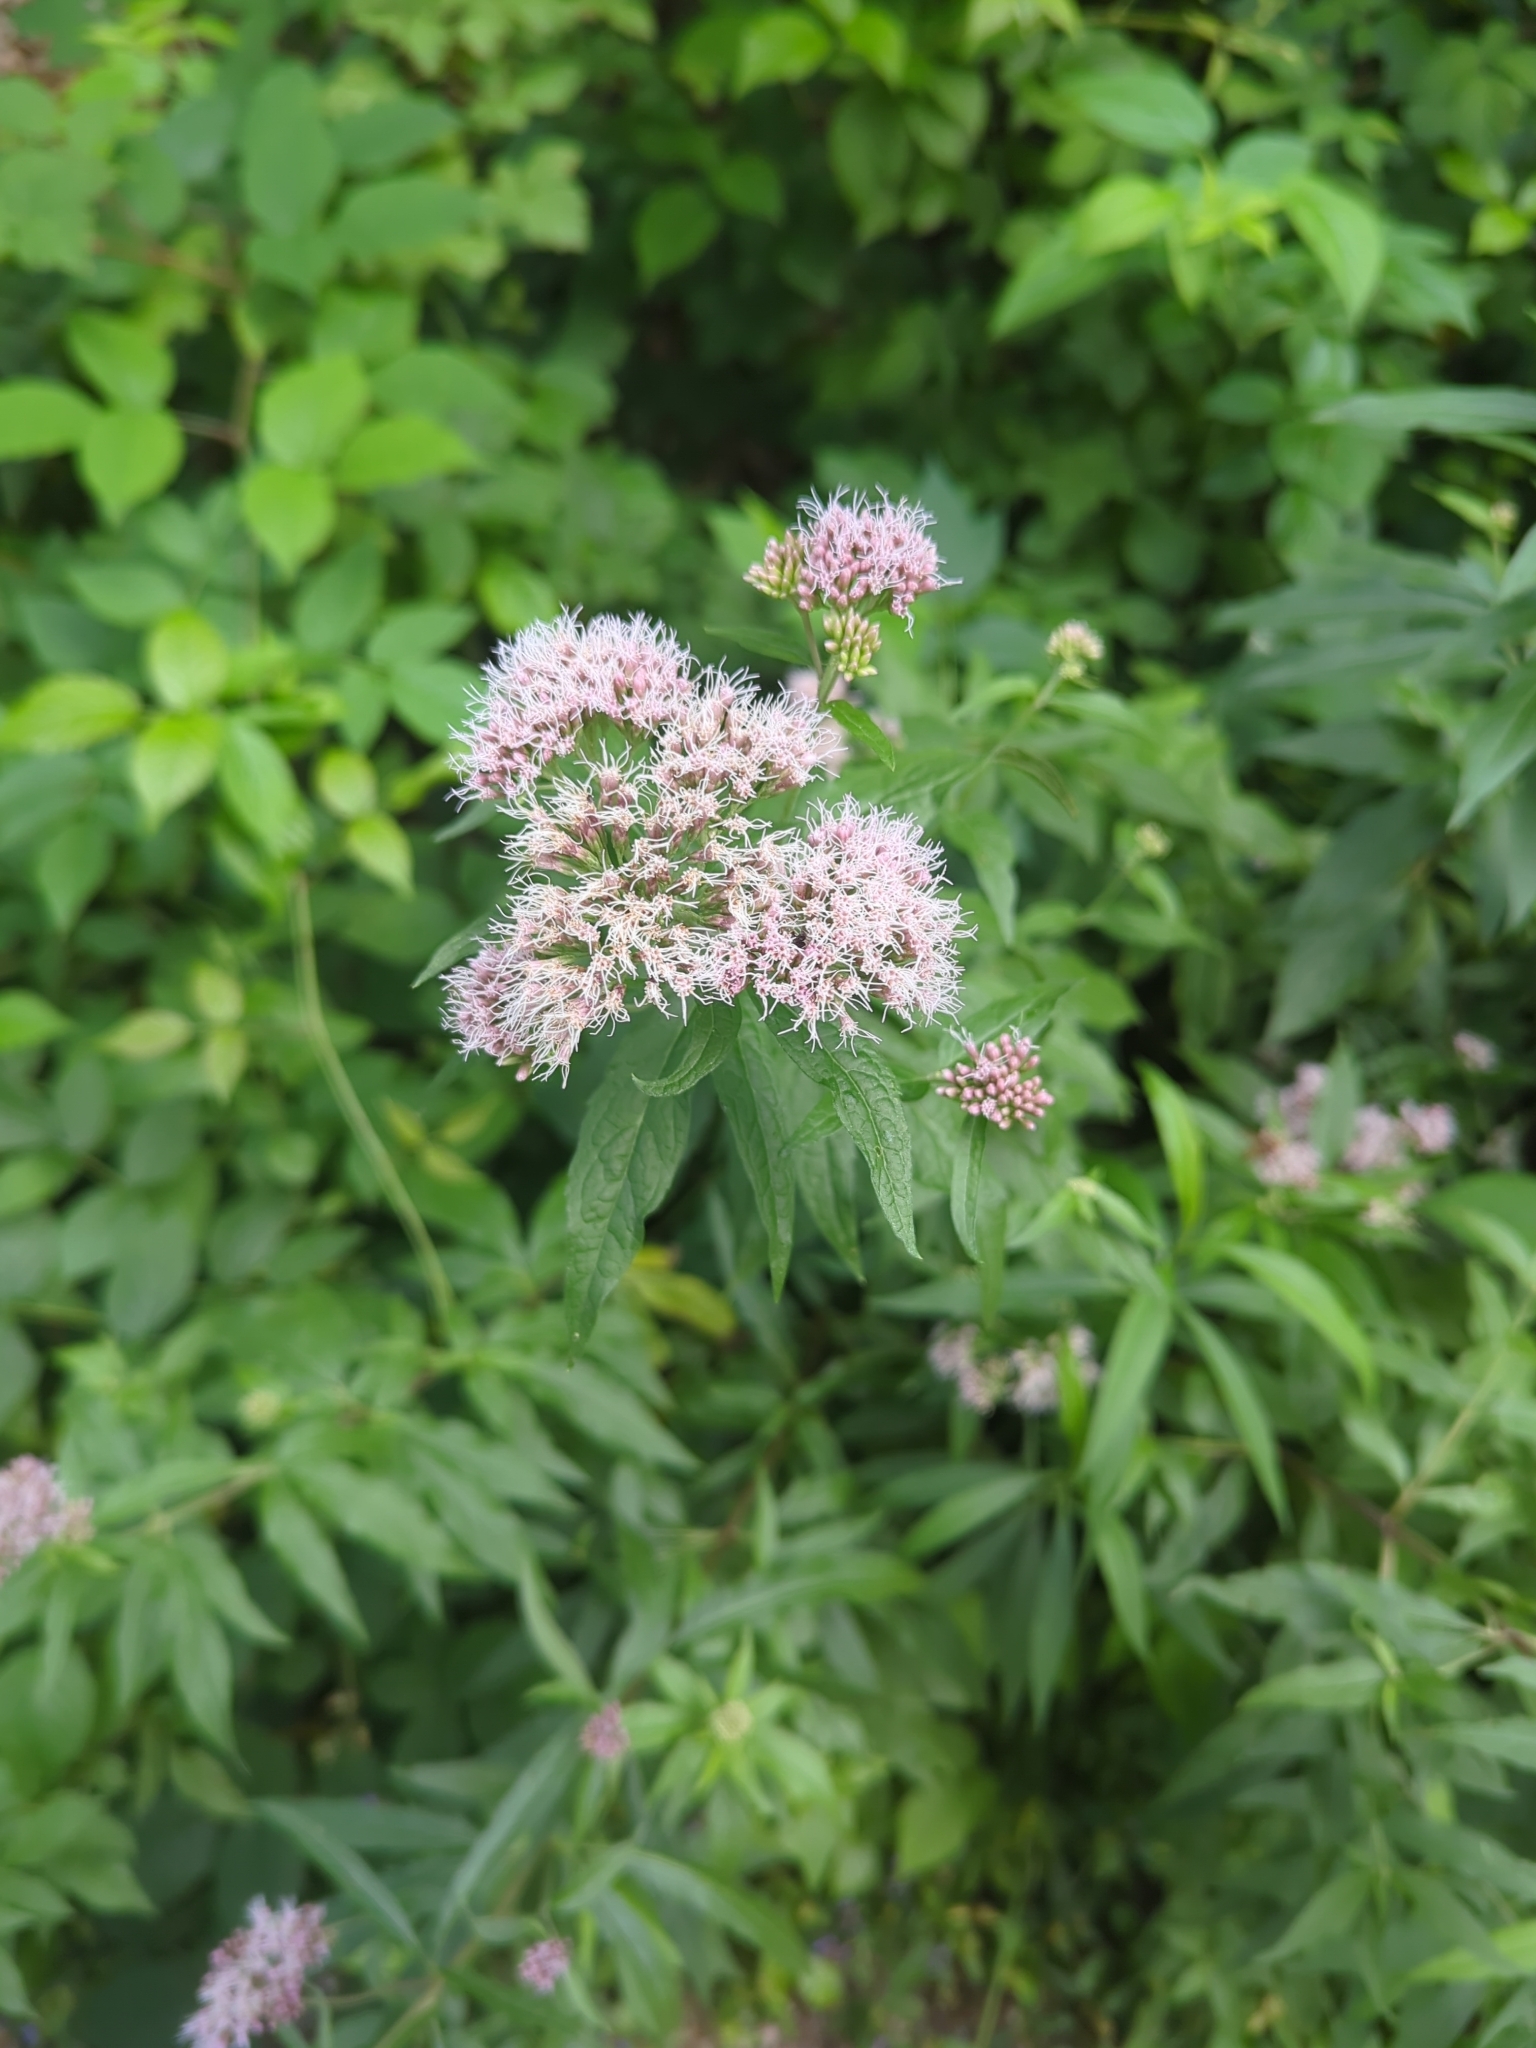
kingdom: Plantae
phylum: Tracheophyta
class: Magnoliopsida
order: Asterales
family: Asteraceae
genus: Eupatorium
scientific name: Eupatorium cannabinum
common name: Hemp-agrimony
